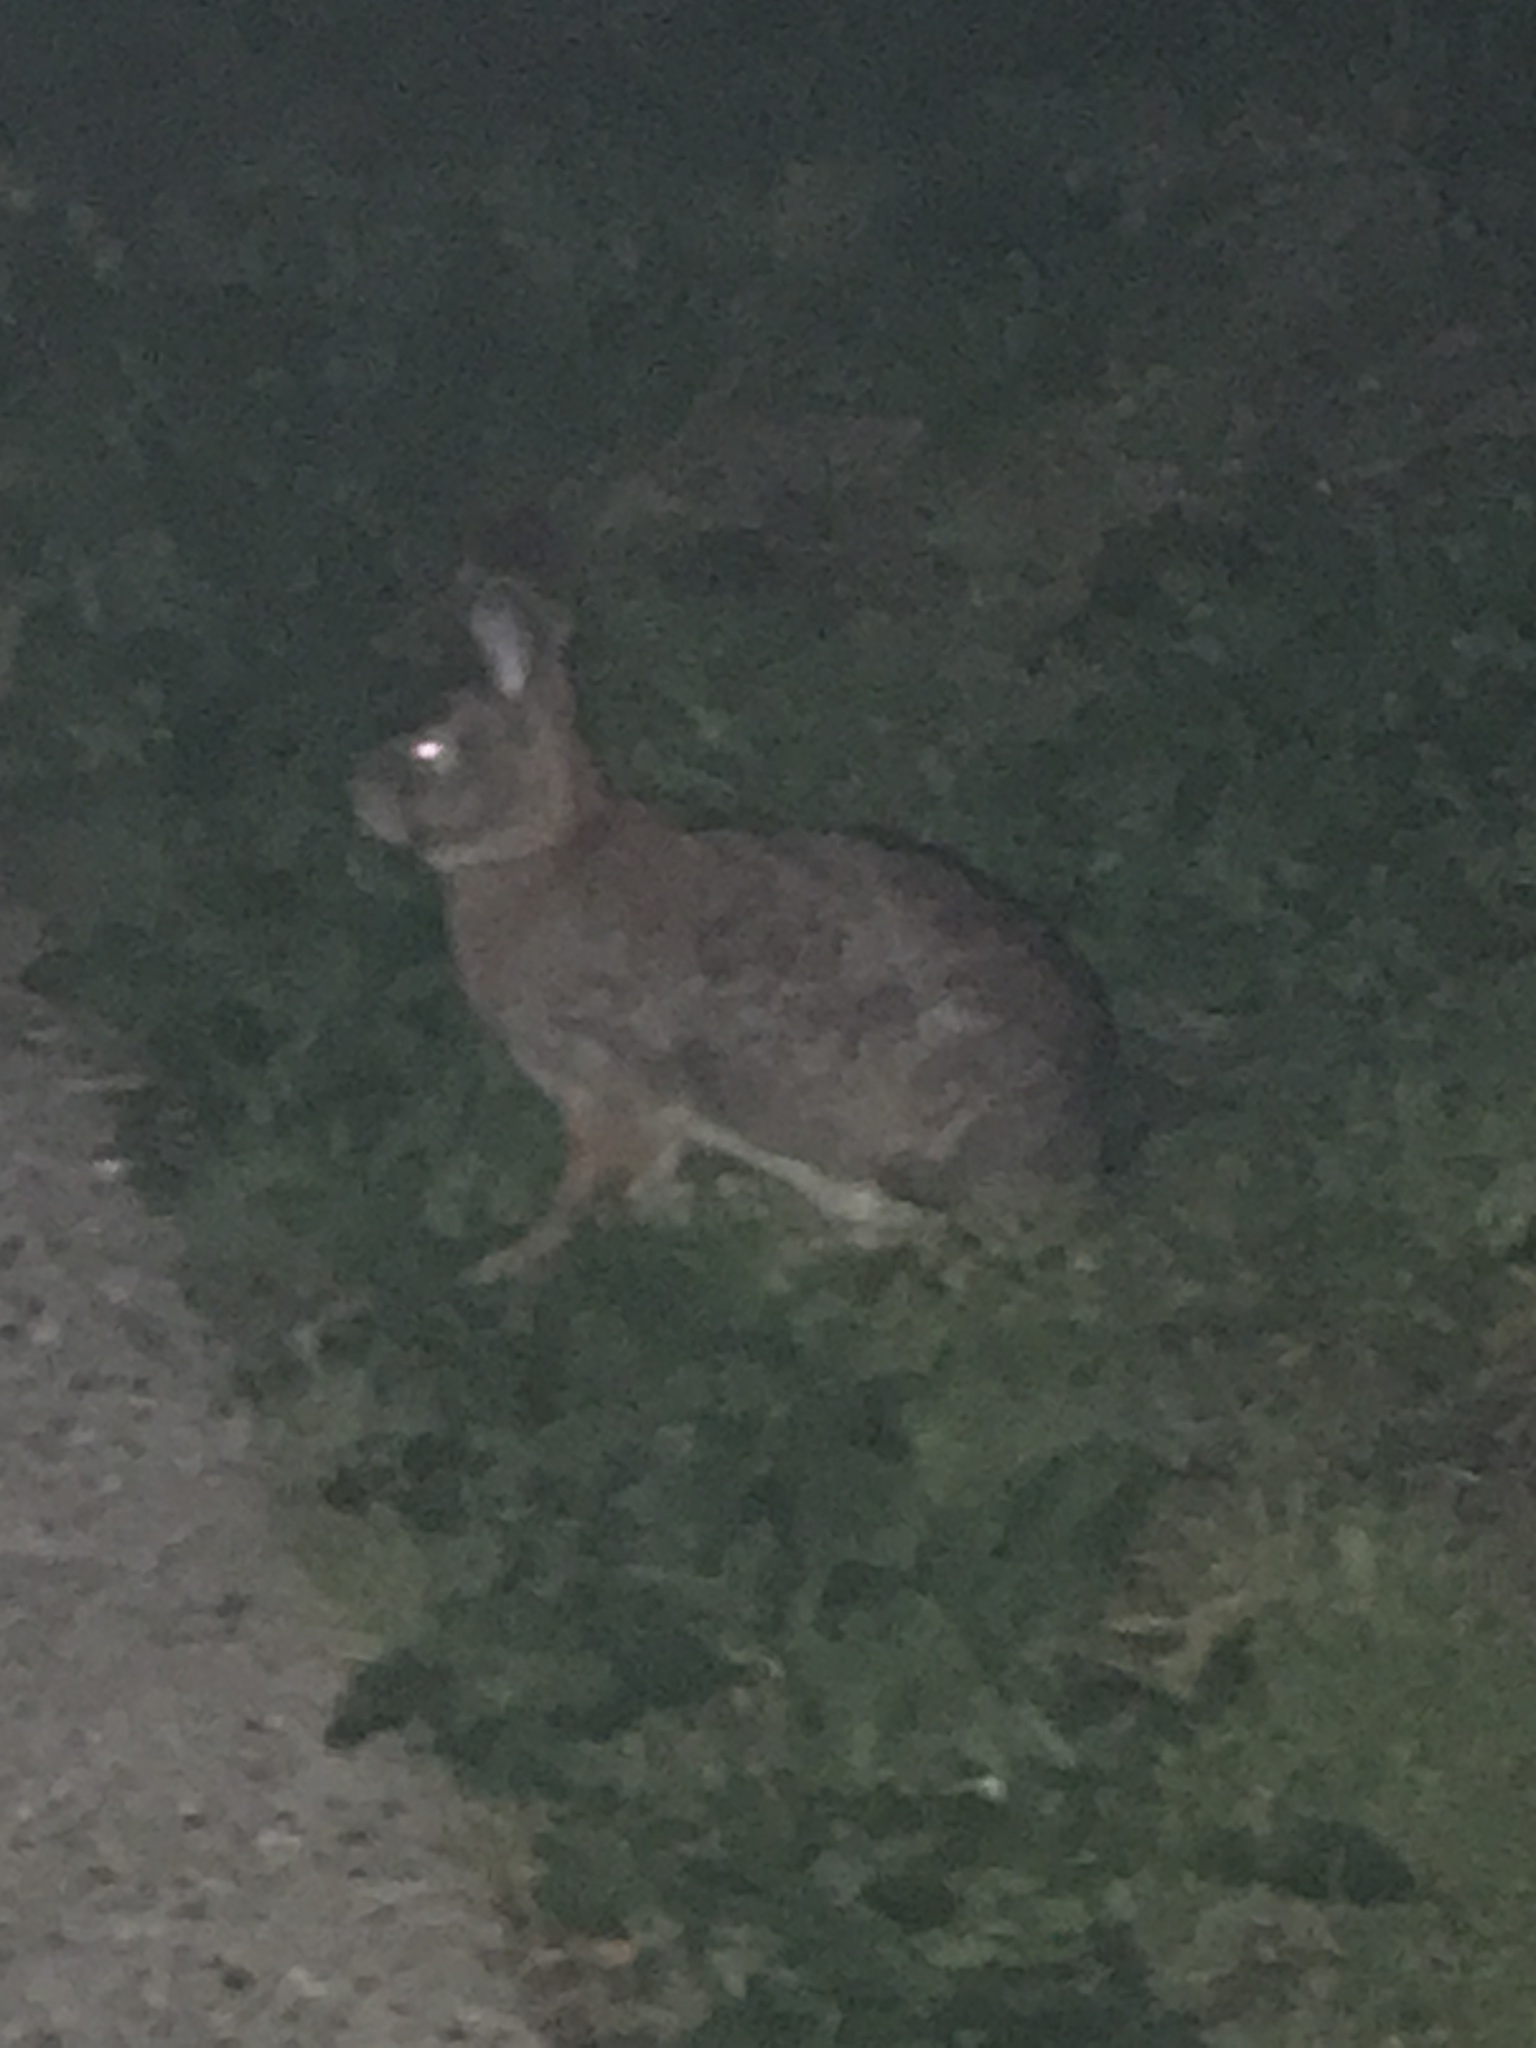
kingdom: Animalia
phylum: Chordata
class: Mammalia
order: Lagomorpha
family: Leporidae
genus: Sylvilagus
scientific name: Sylvilagus floridanus
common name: Eastern cottontail
